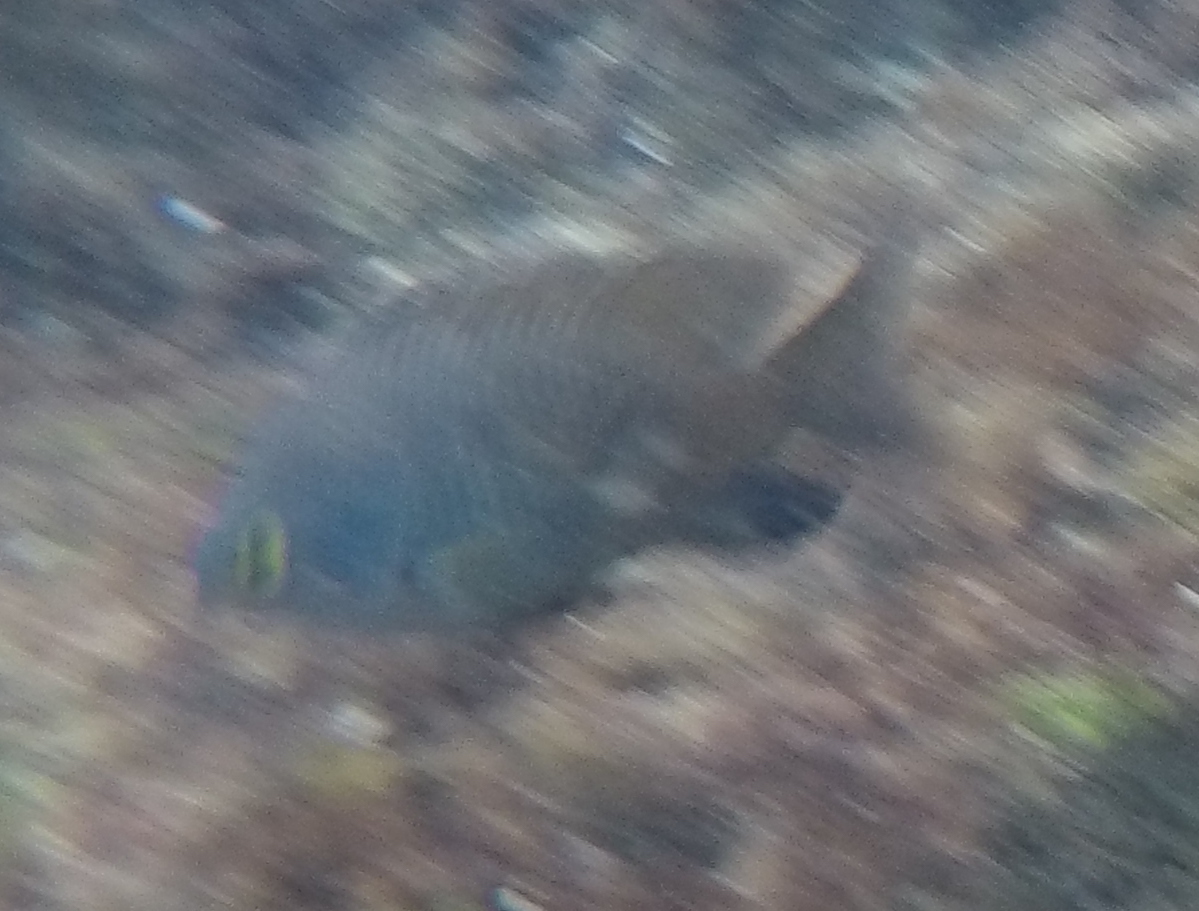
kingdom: Animalia
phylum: Chordata
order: Perciformes
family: Pomacentridae
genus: Stegastes
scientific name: Stegastes fasciolatus
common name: Pacific gregory
